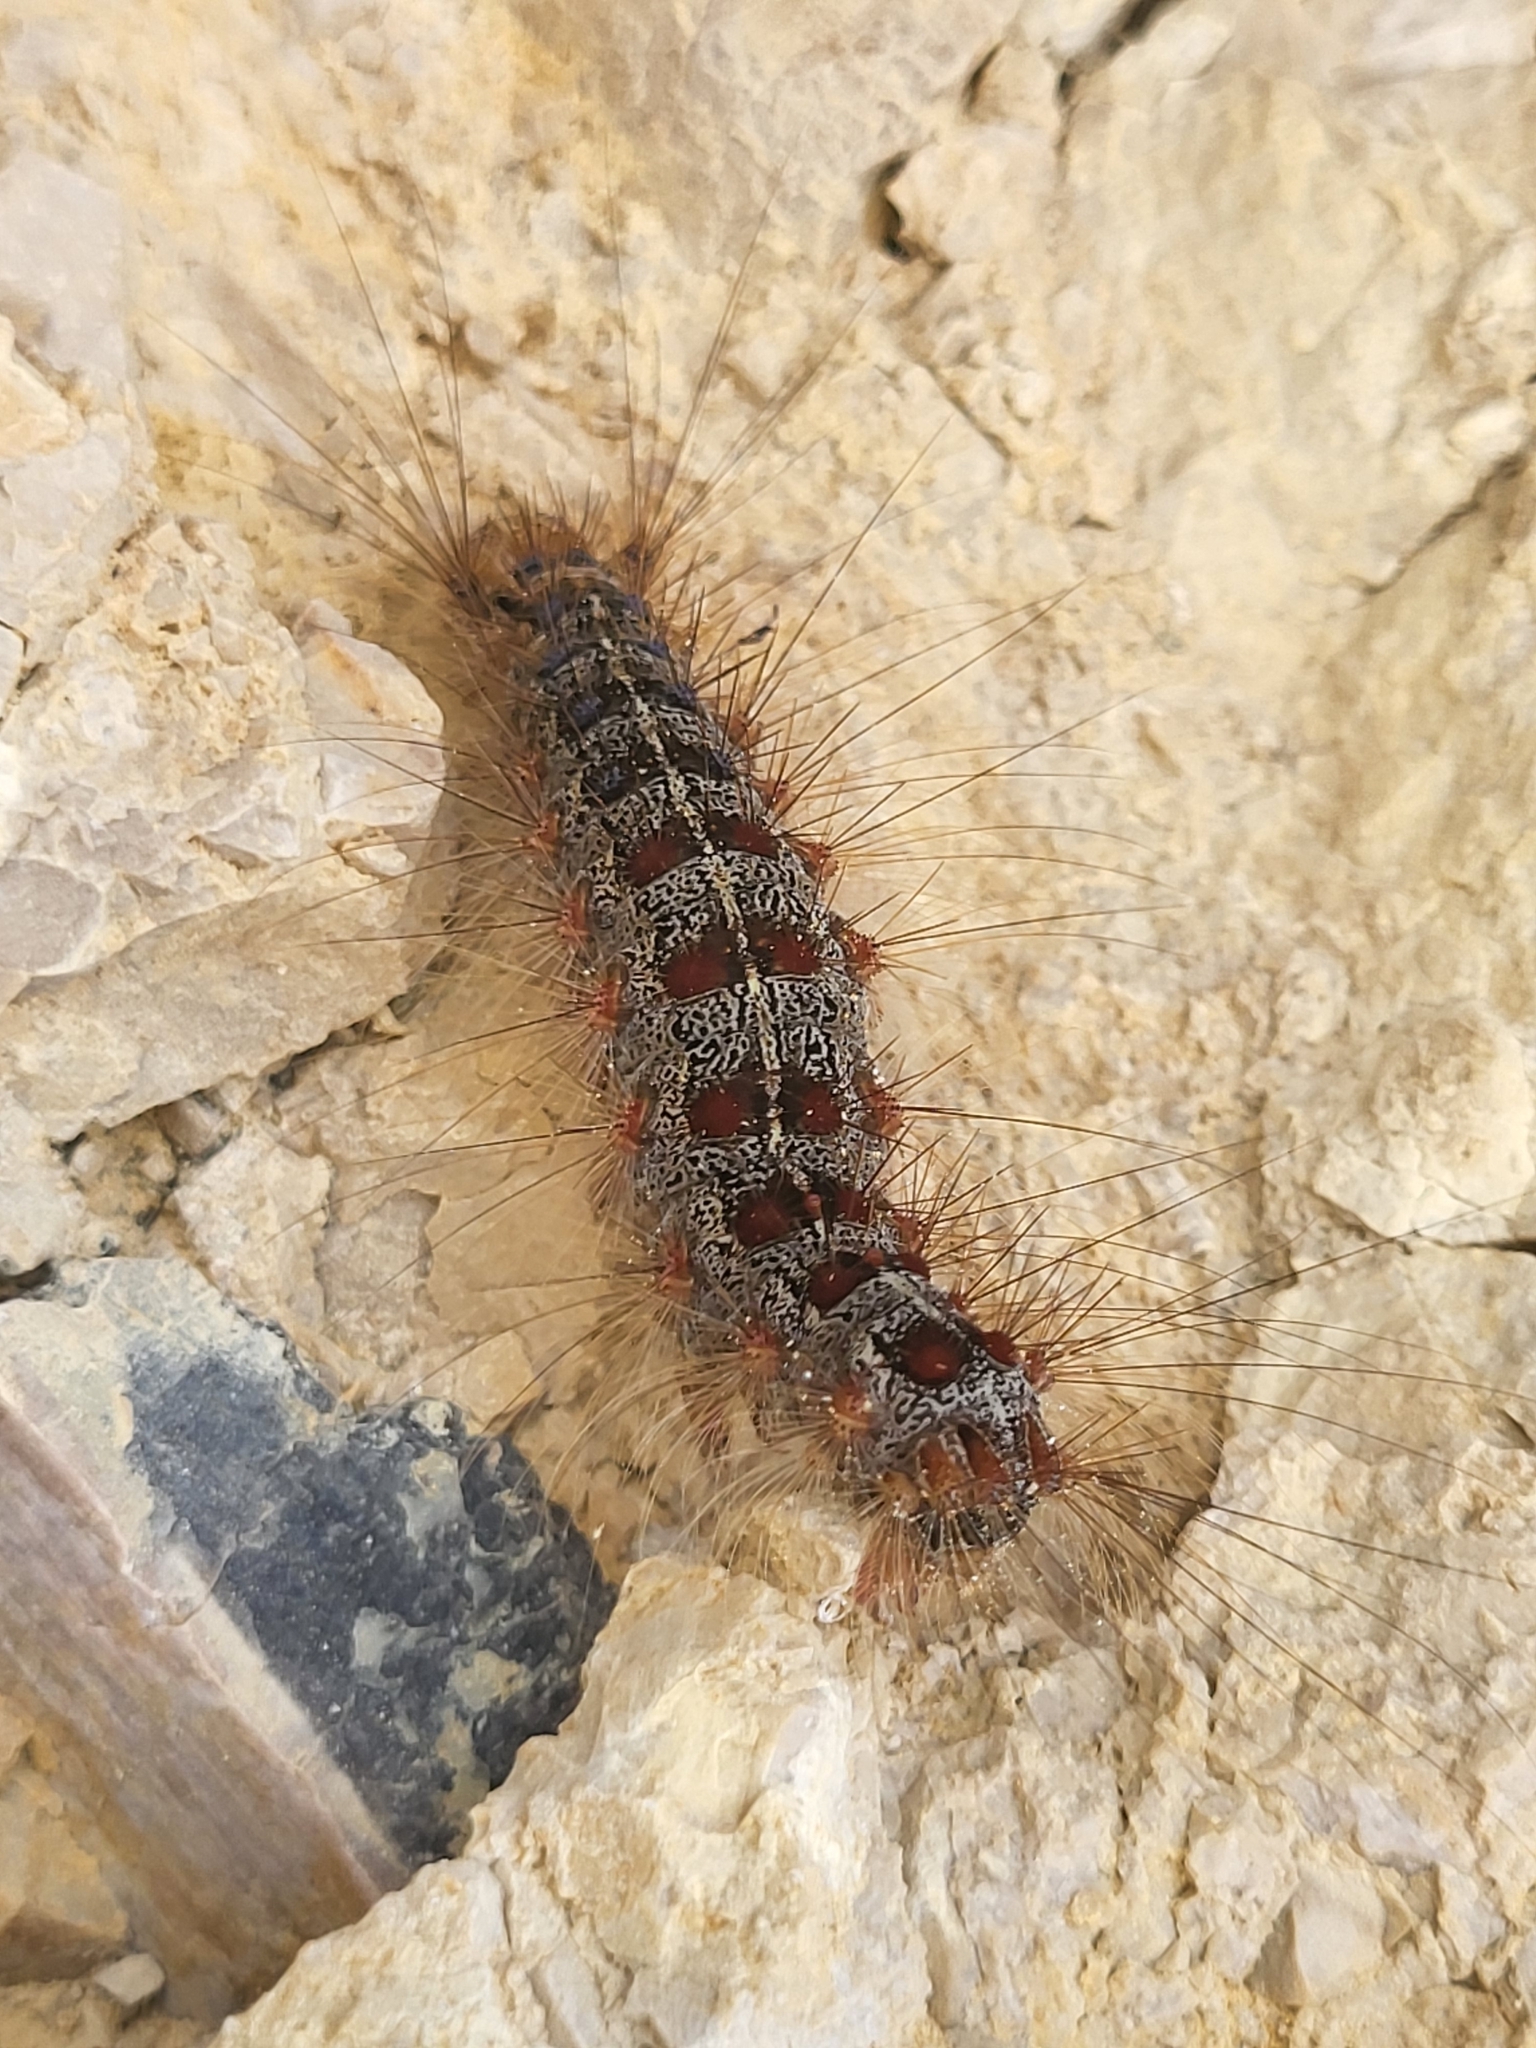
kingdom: Animalia
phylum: Arthropoda
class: Insecta
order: Lepidoptera
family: Erebidae
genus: Lymantria
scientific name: Lymantria dispar
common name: Gypsy moth
